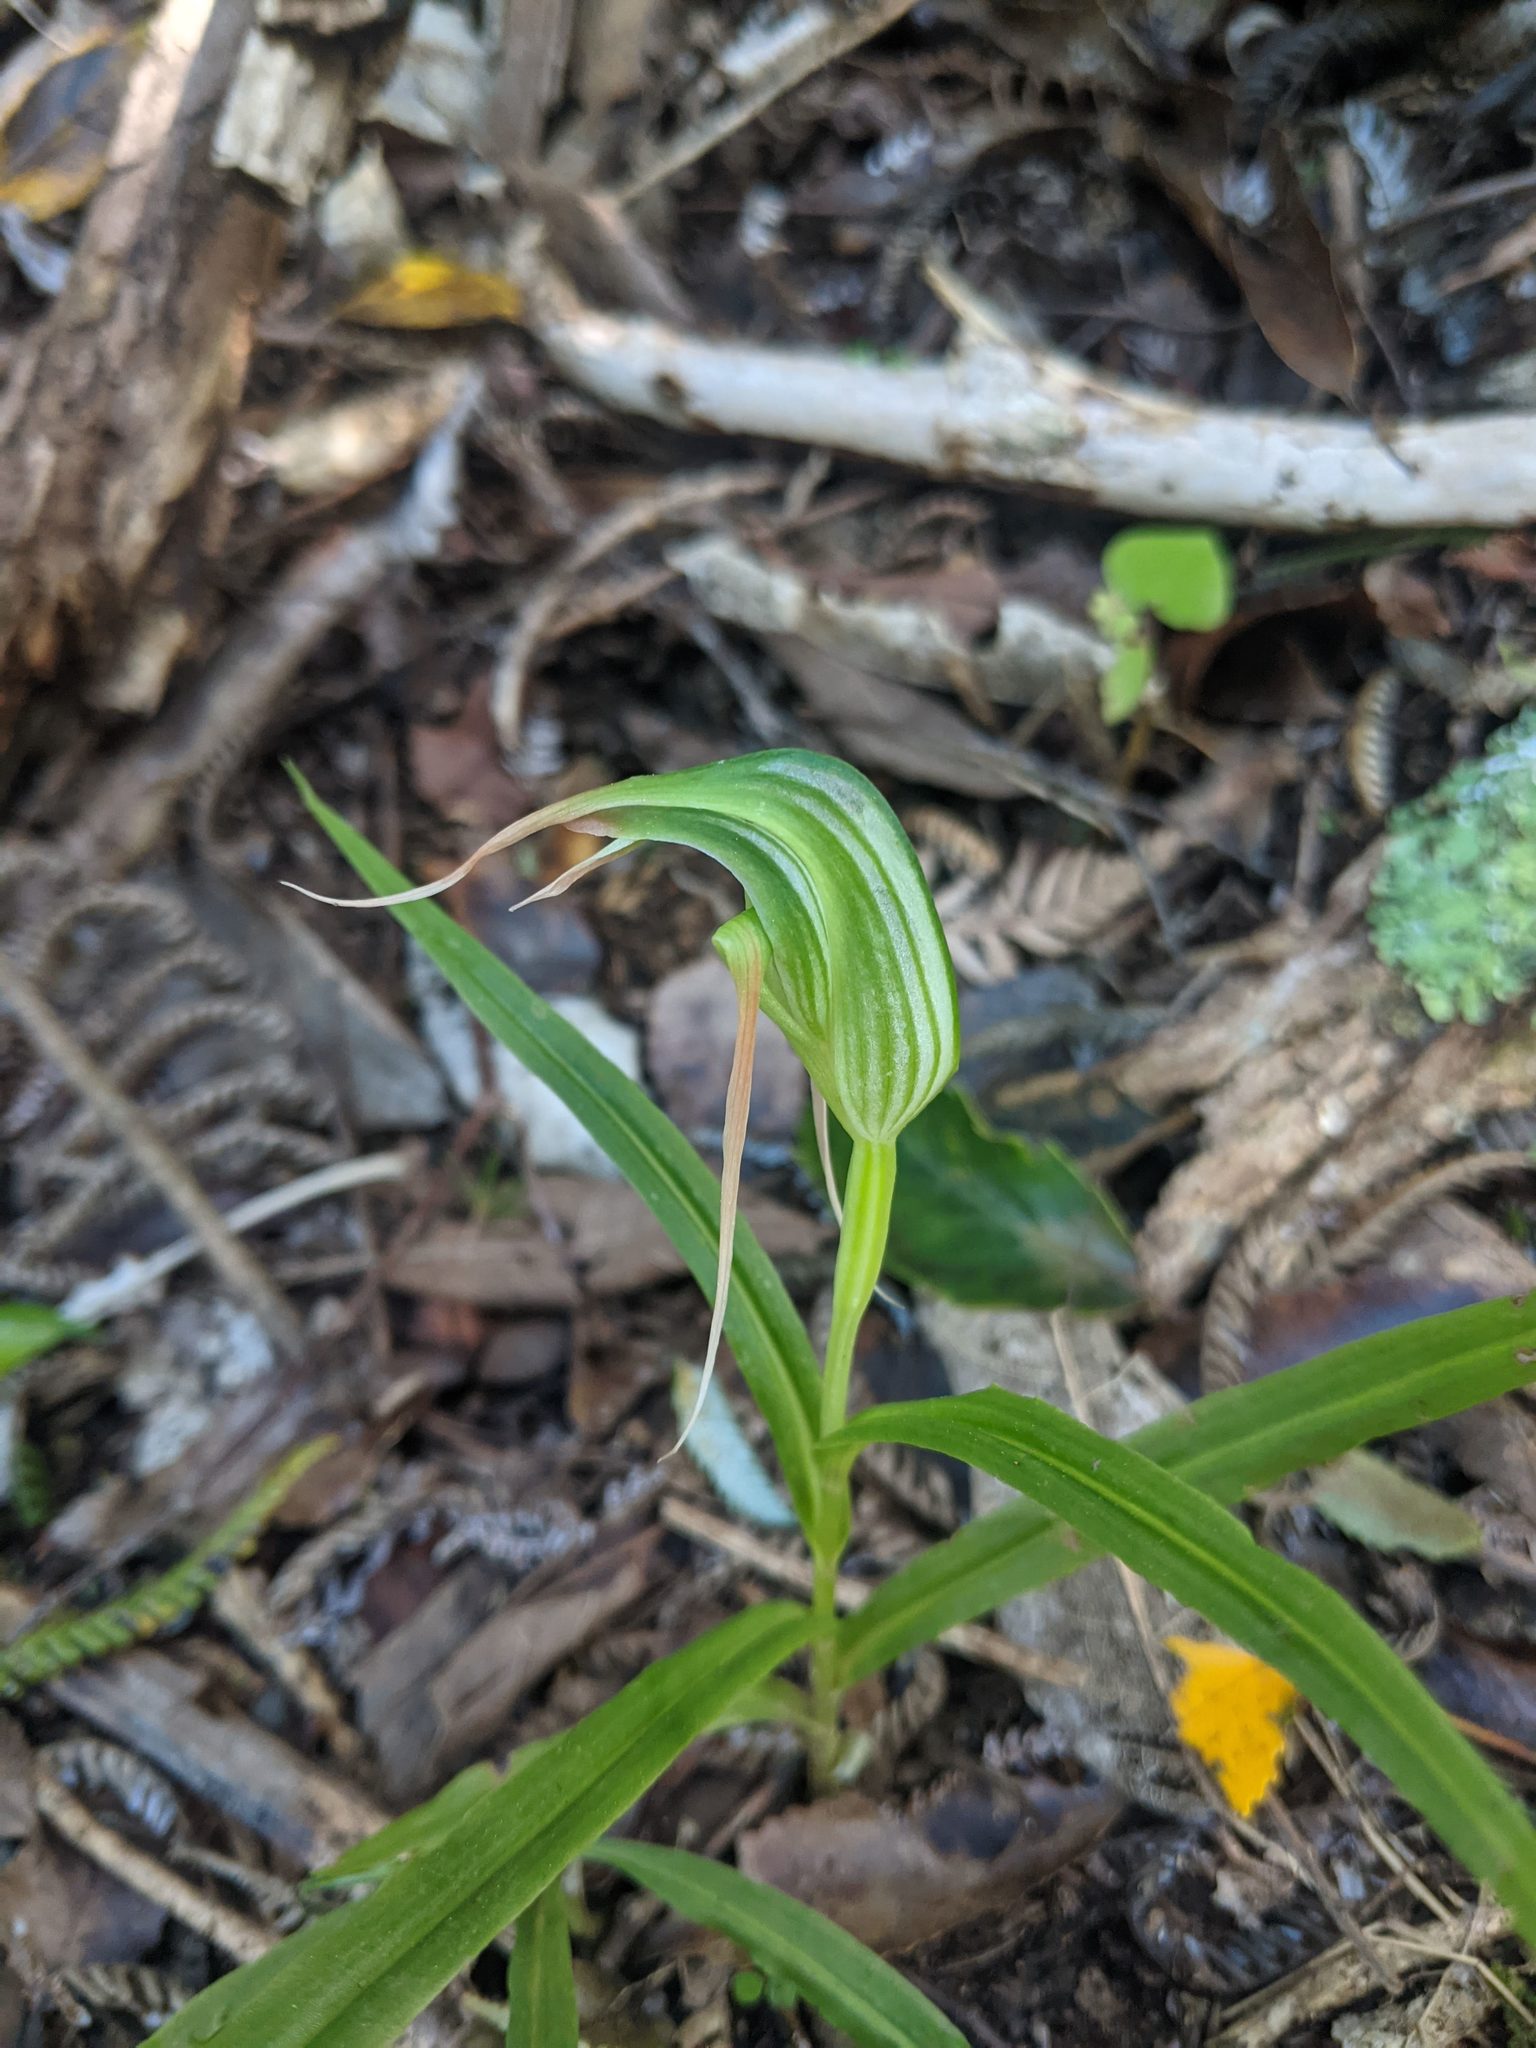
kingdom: Plantae
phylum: Tracheophyta
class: Liliopsida
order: Asparagales
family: Orchidaceae
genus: Pterostylis
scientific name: Pterostylis banksii
